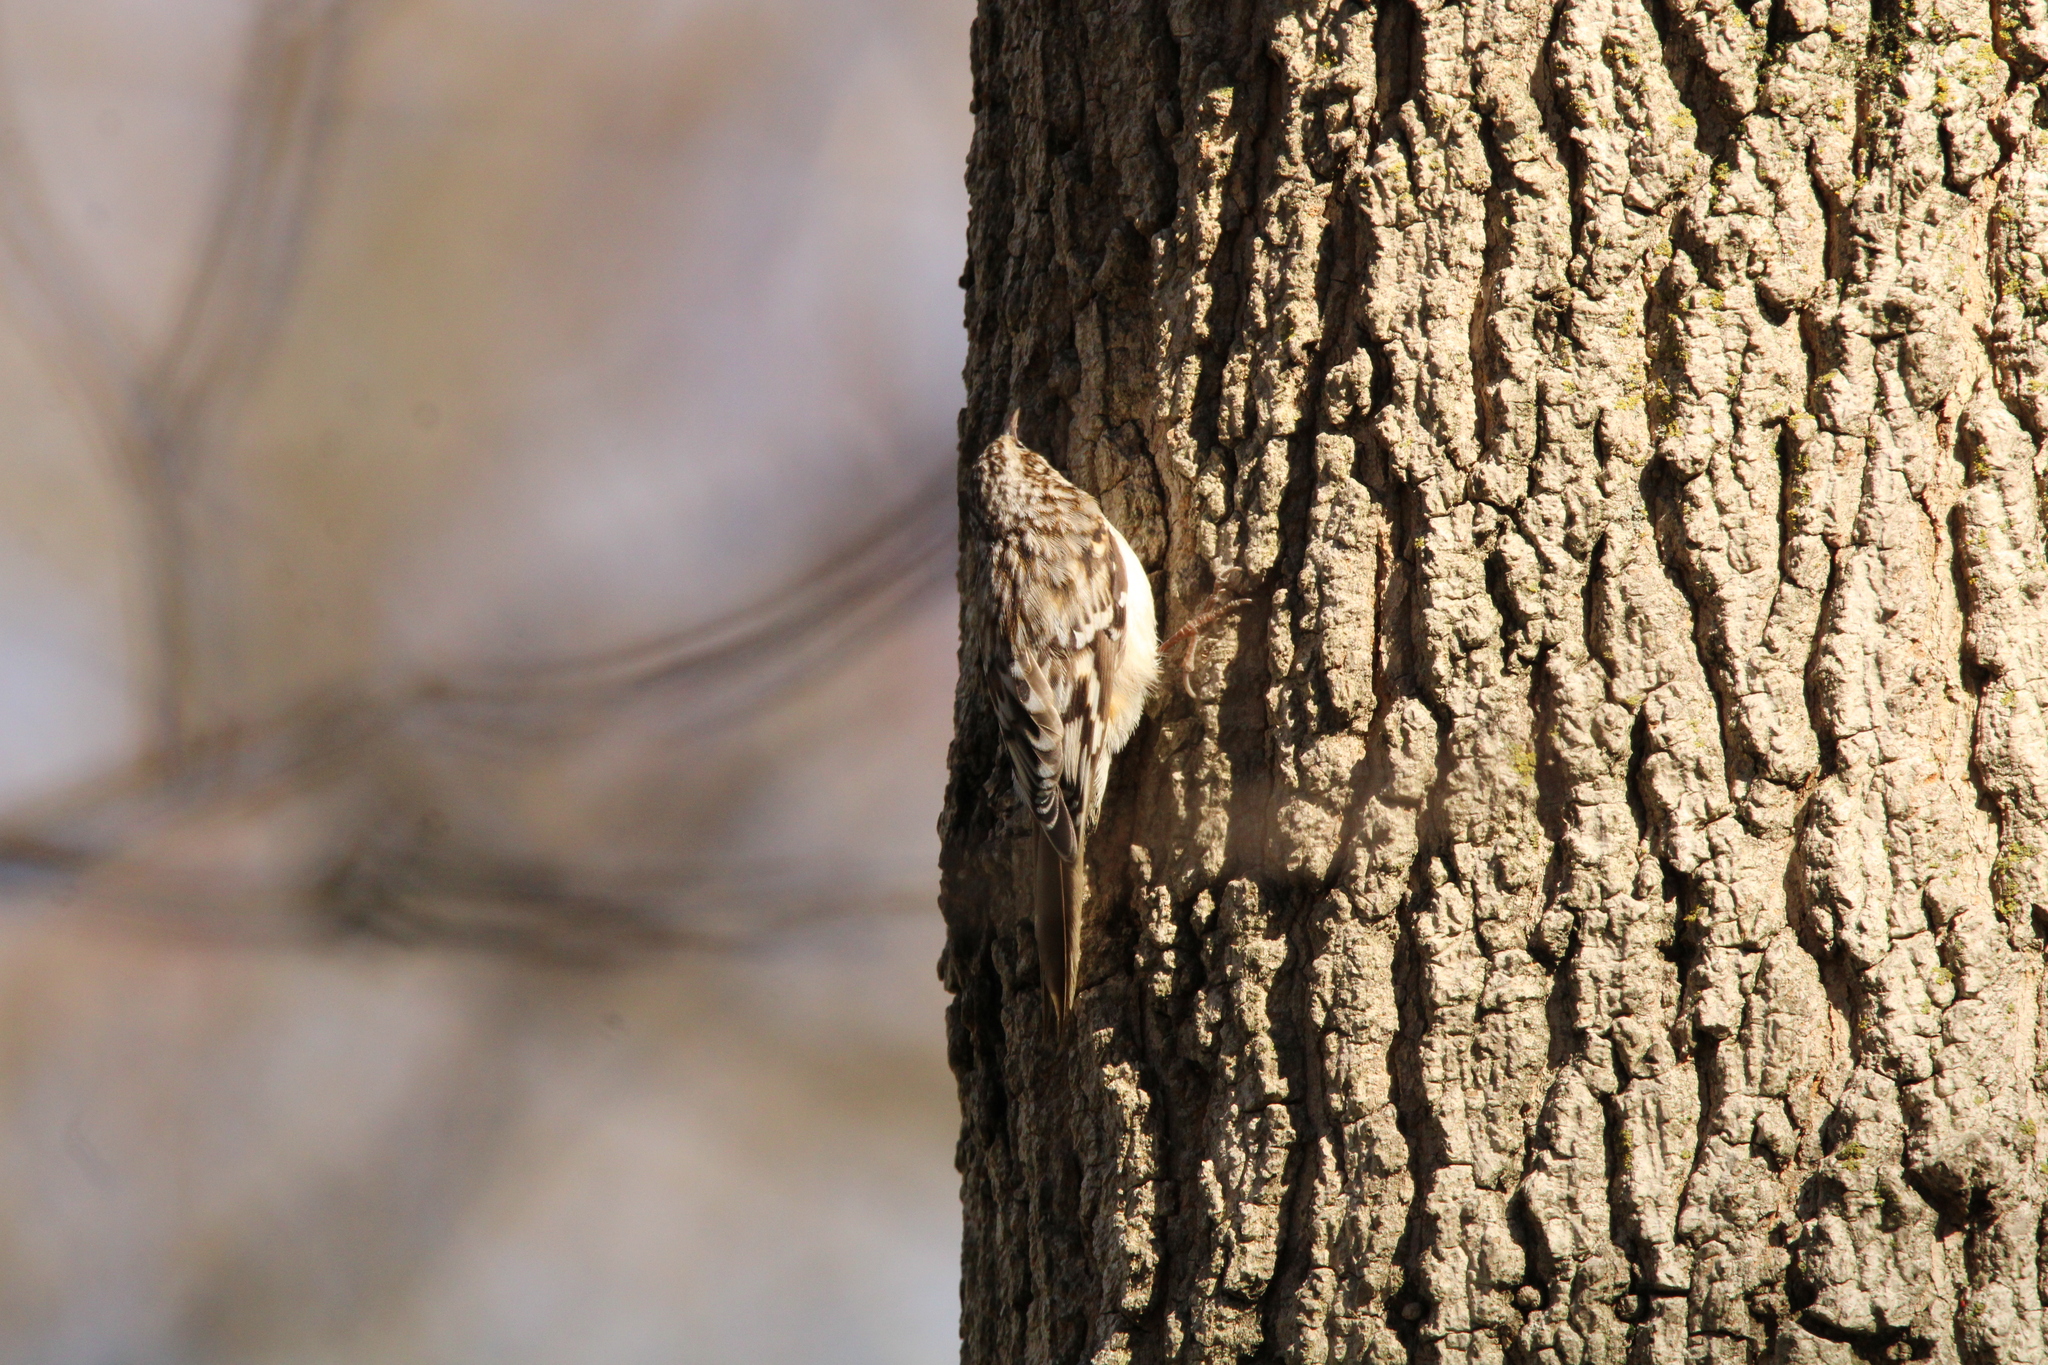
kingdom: Animalia
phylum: Chordata
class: Aves
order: Passeriformes
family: Certhiidae
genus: Certhia
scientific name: Certhia americana
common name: Brown creeper
